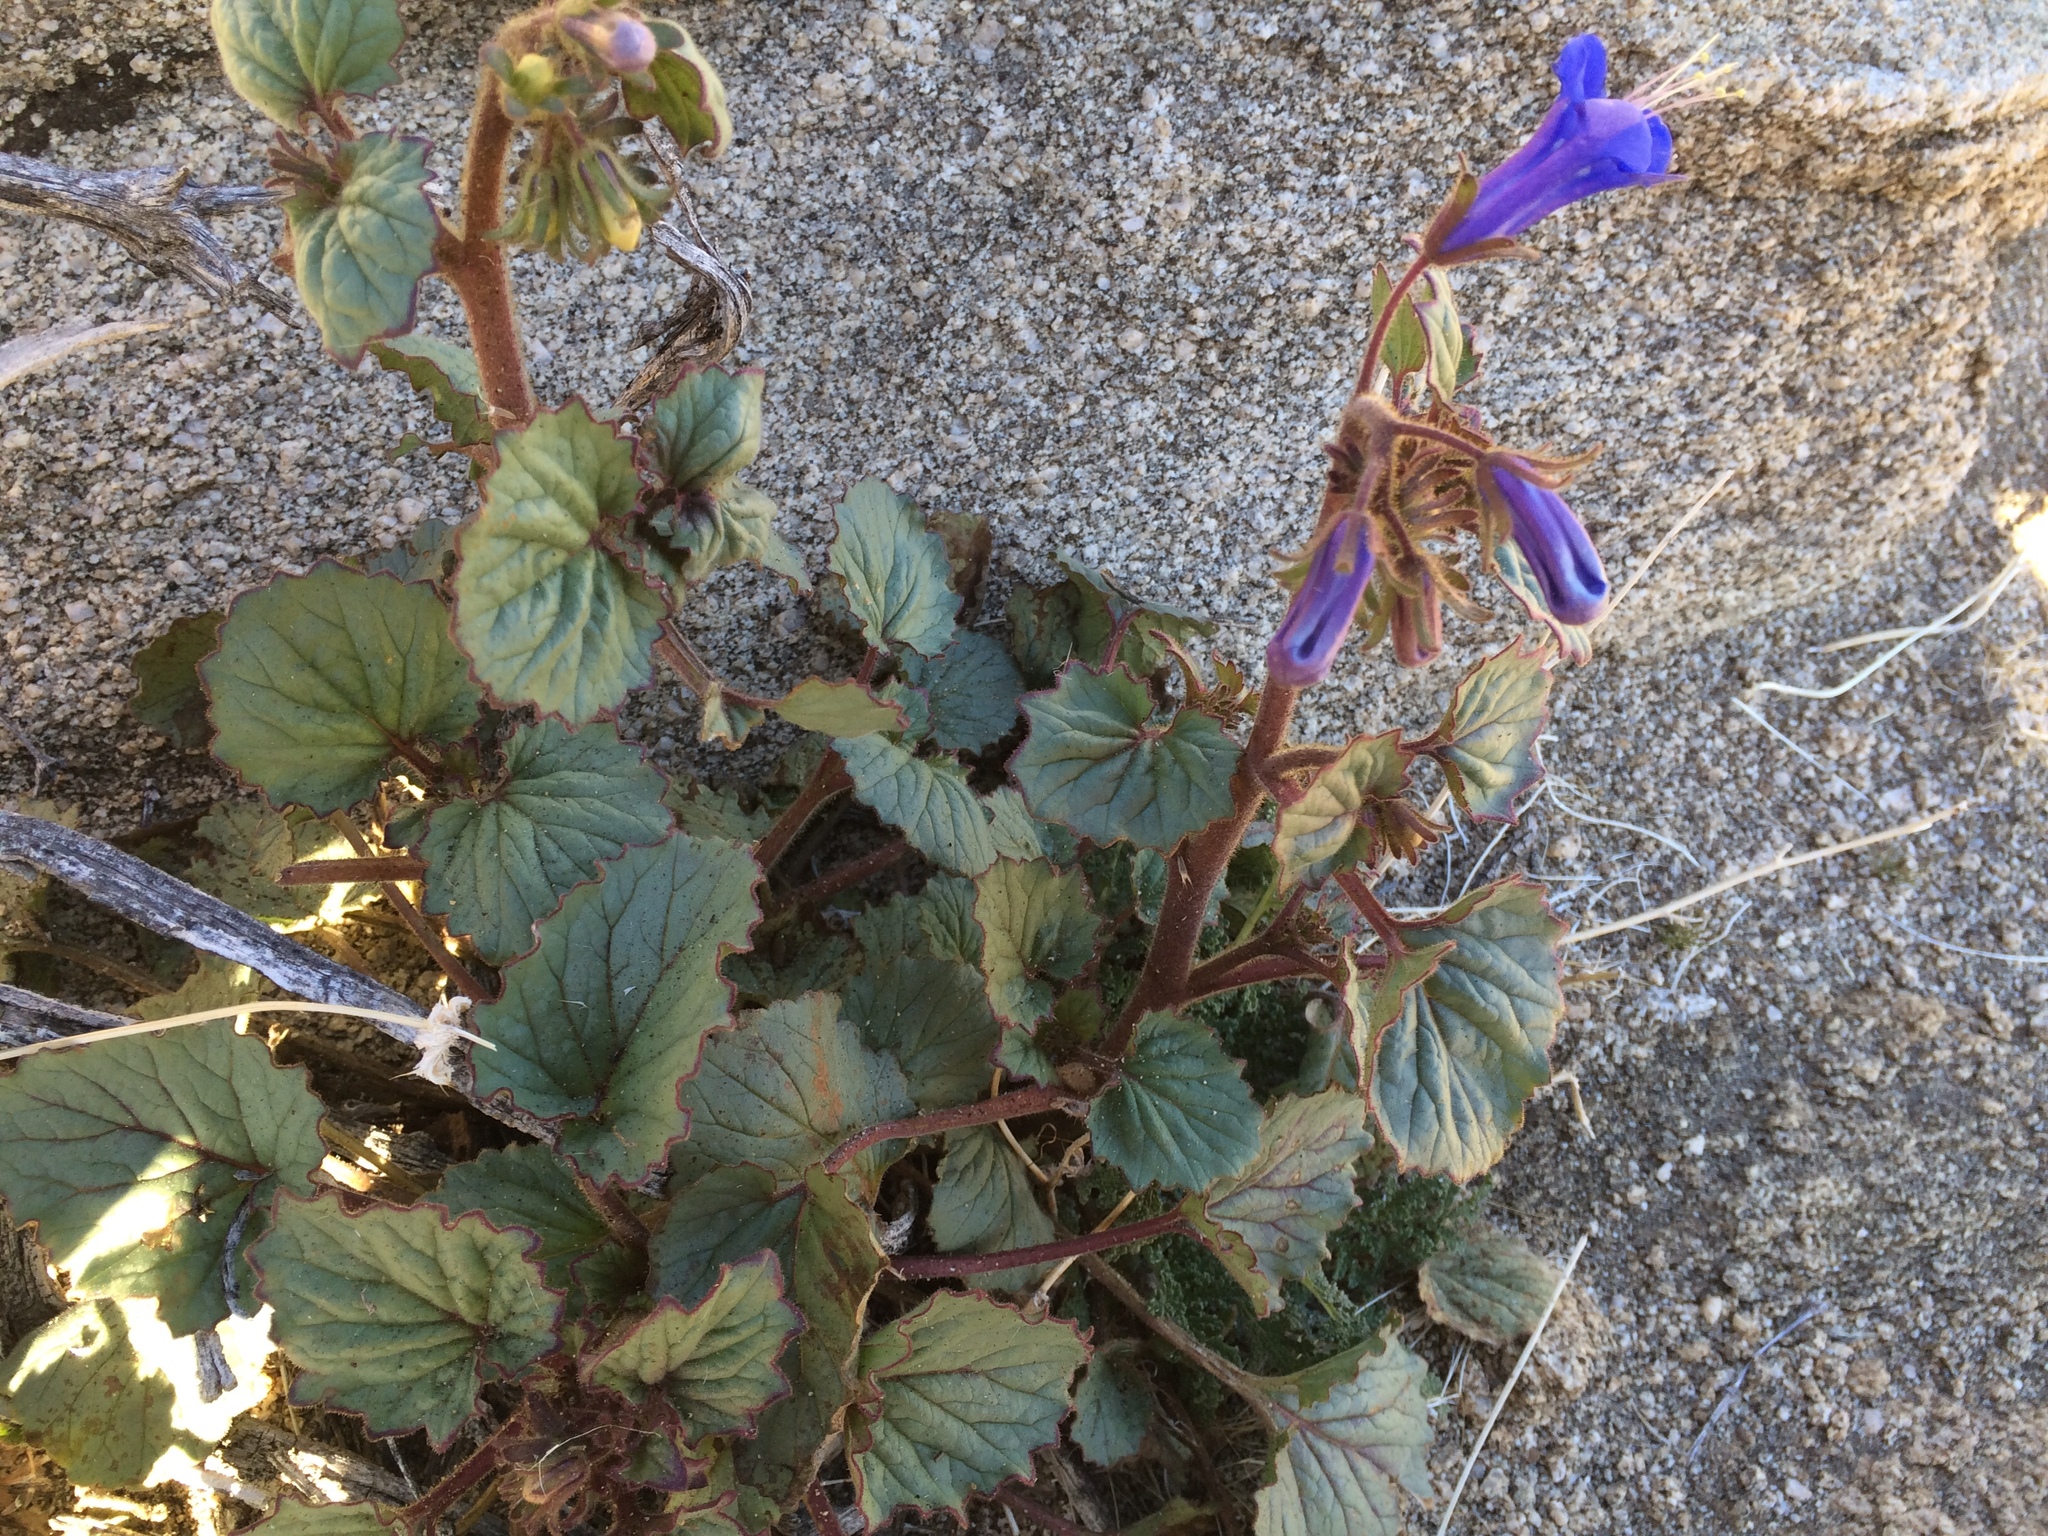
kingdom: Plantae
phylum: Tracheophyta
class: Magnoliopsida
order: Boraginales
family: Hydrophyllaceae
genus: Phacelia
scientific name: Phacelia campanularia
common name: California bluebell
